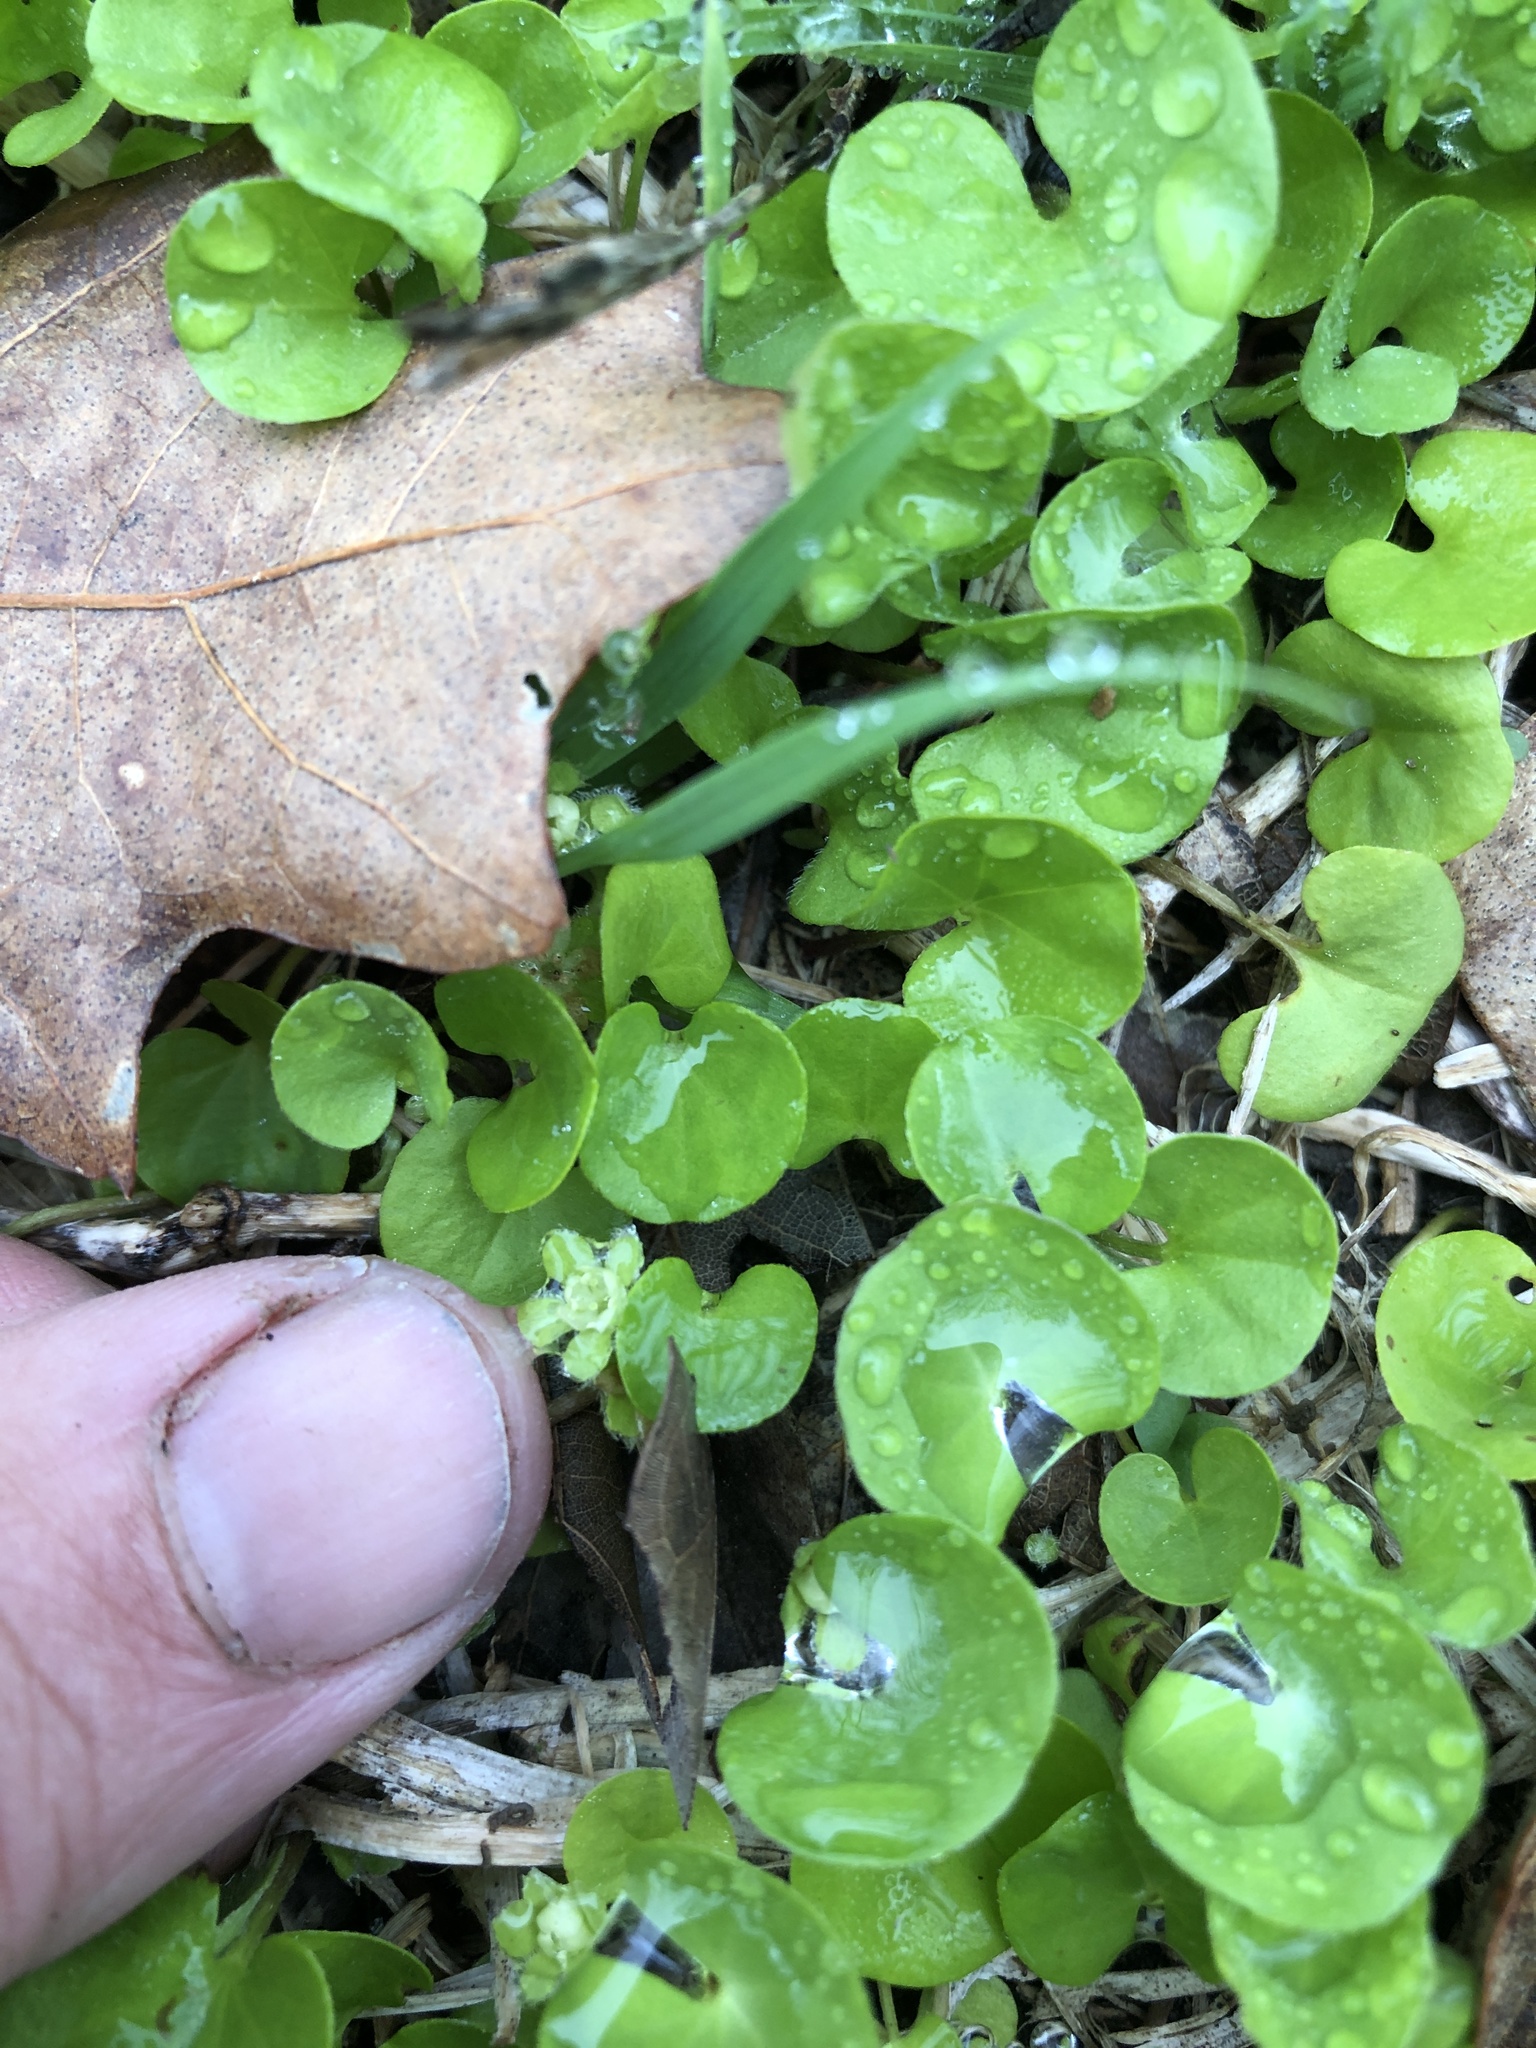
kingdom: Plantae
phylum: Tracheophyta
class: Magnoliopsida
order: Solanales
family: Convolvulaceae
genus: Dichondra
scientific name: Dichondra carolinensis
